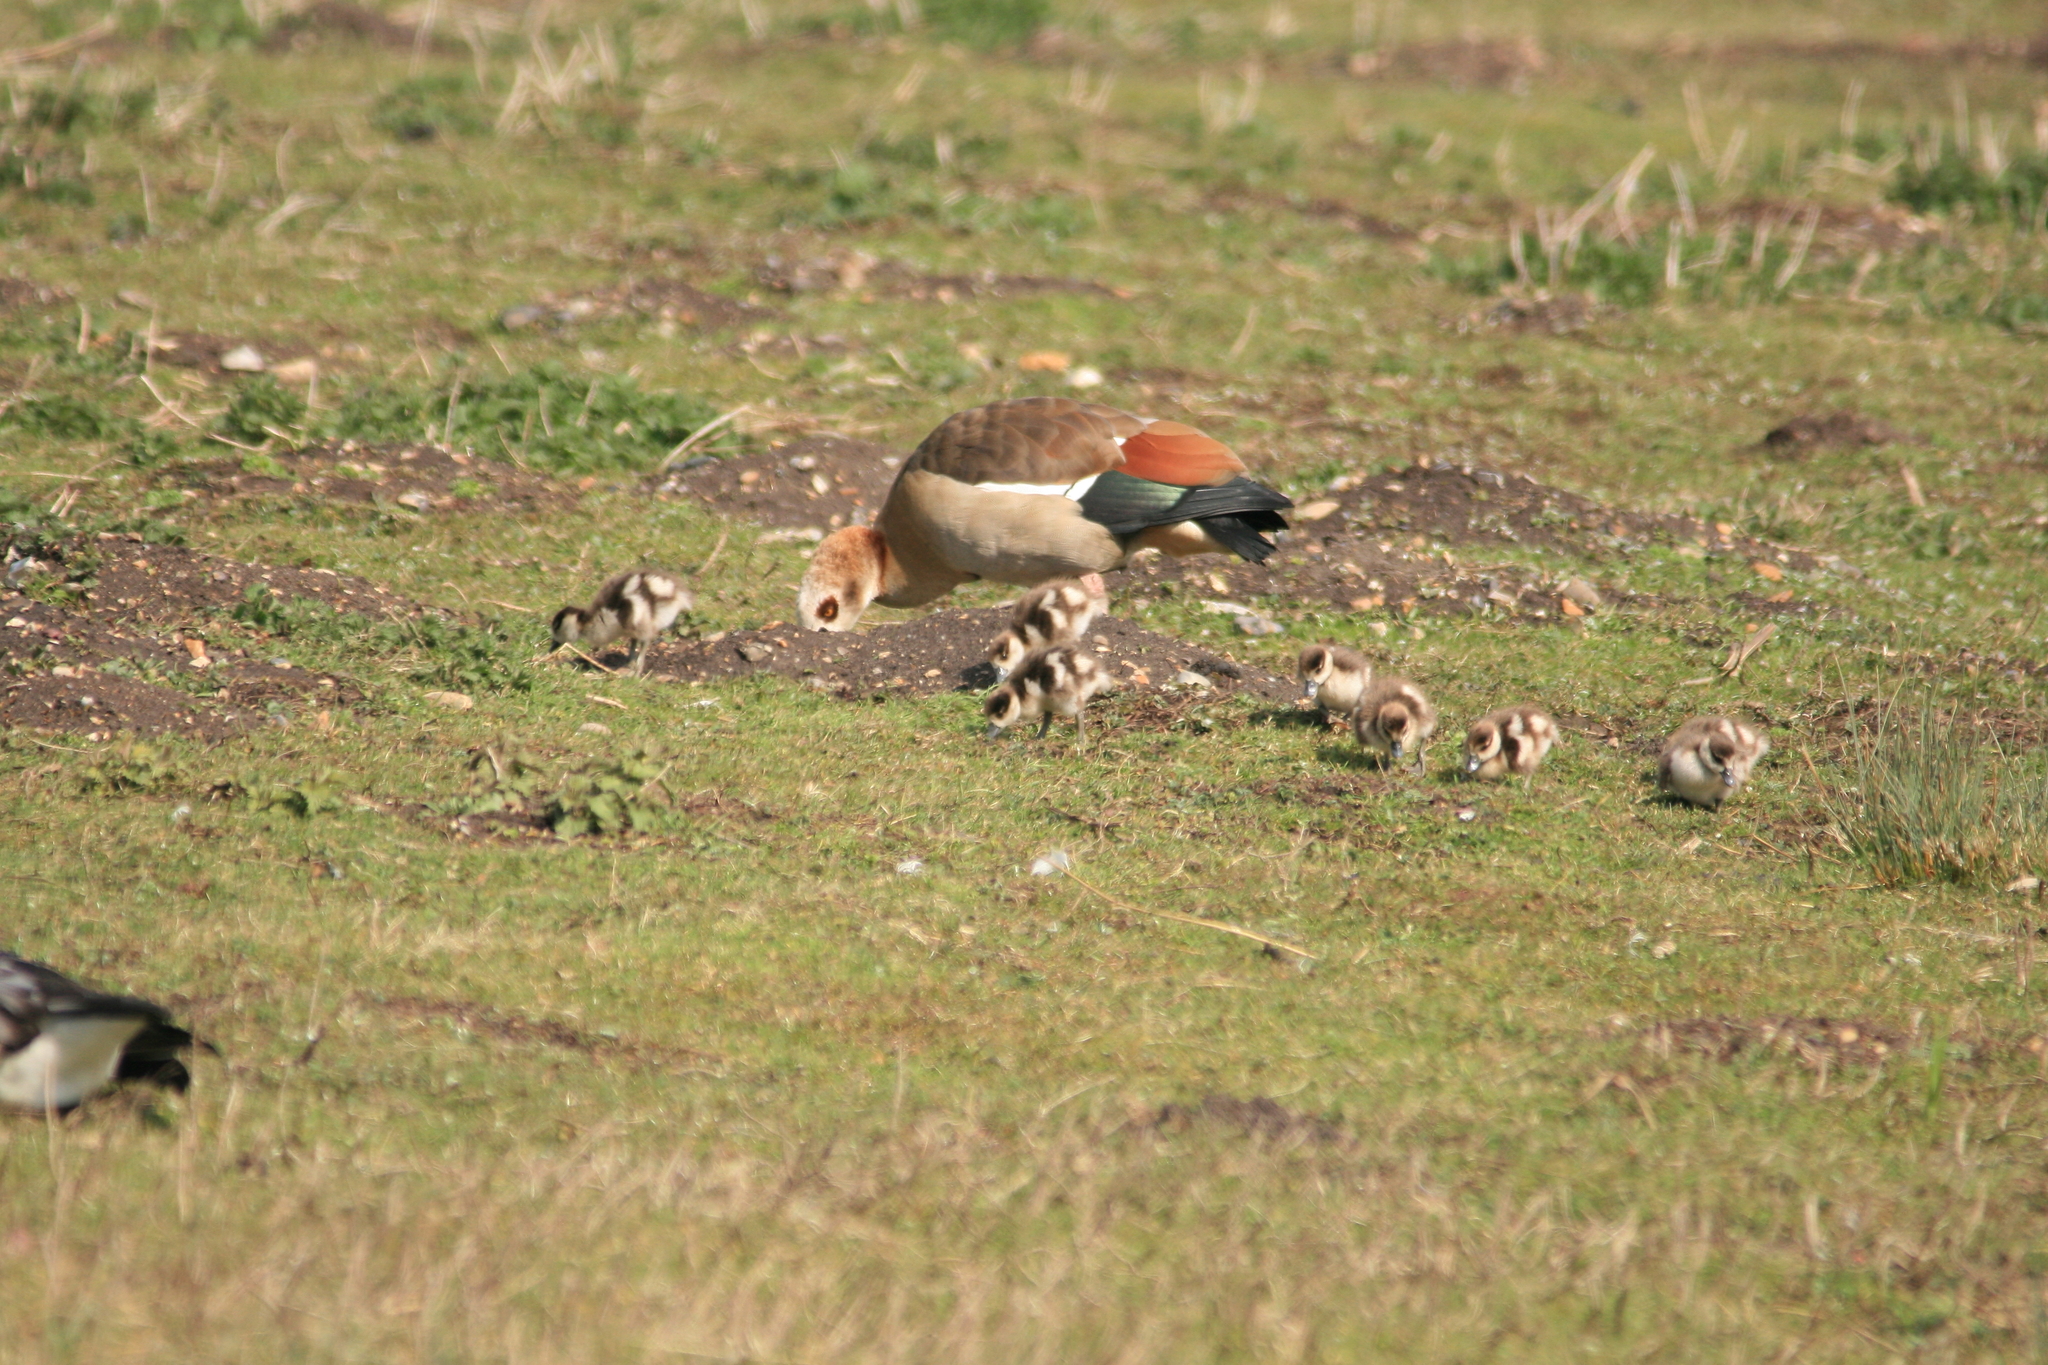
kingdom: Animalia
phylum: Chordata
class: Aves
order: Anseriformes
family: Anatidae
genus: Alopochen
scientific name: Alopochen aegyptiaca
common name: Egyptian goose
